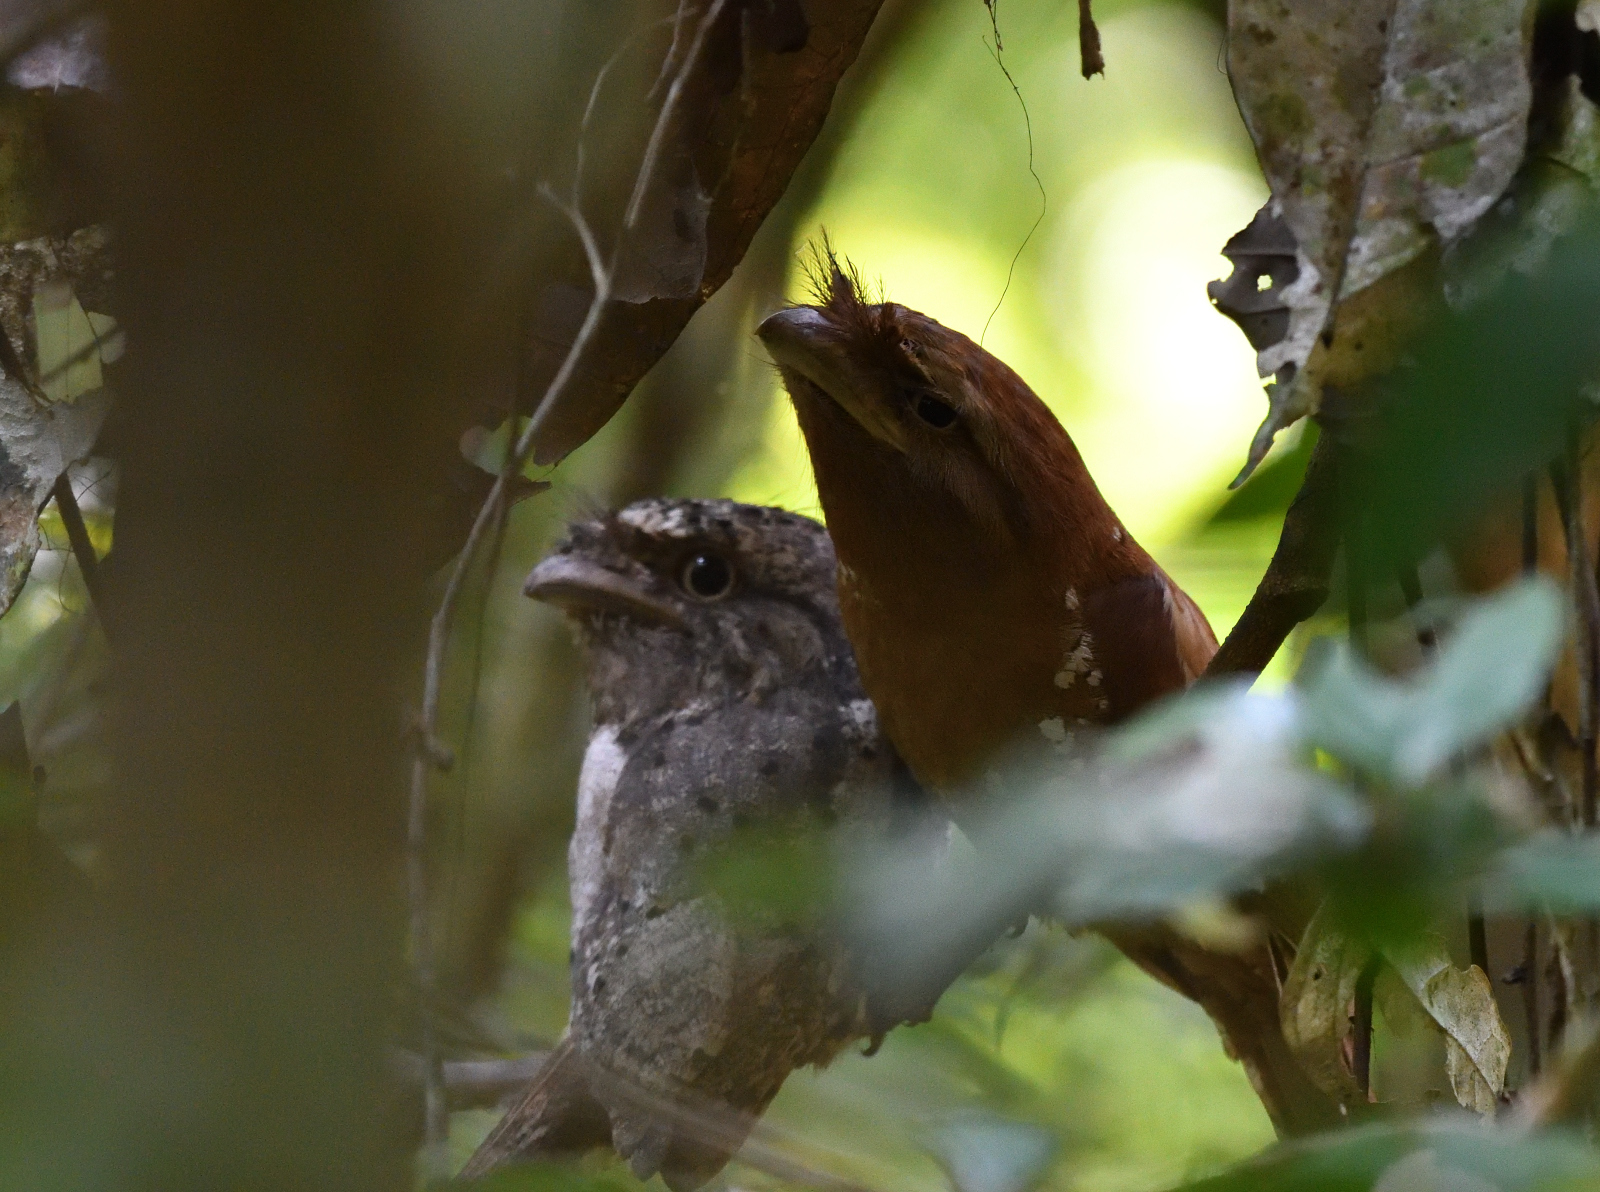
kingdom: Animalia
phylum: Chordata
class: Aves
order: Caprimulgiformes
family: Podargidae
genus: Batrachostomus
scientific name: Batrachostomus moniliger
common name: Sri lanka frogmouth
